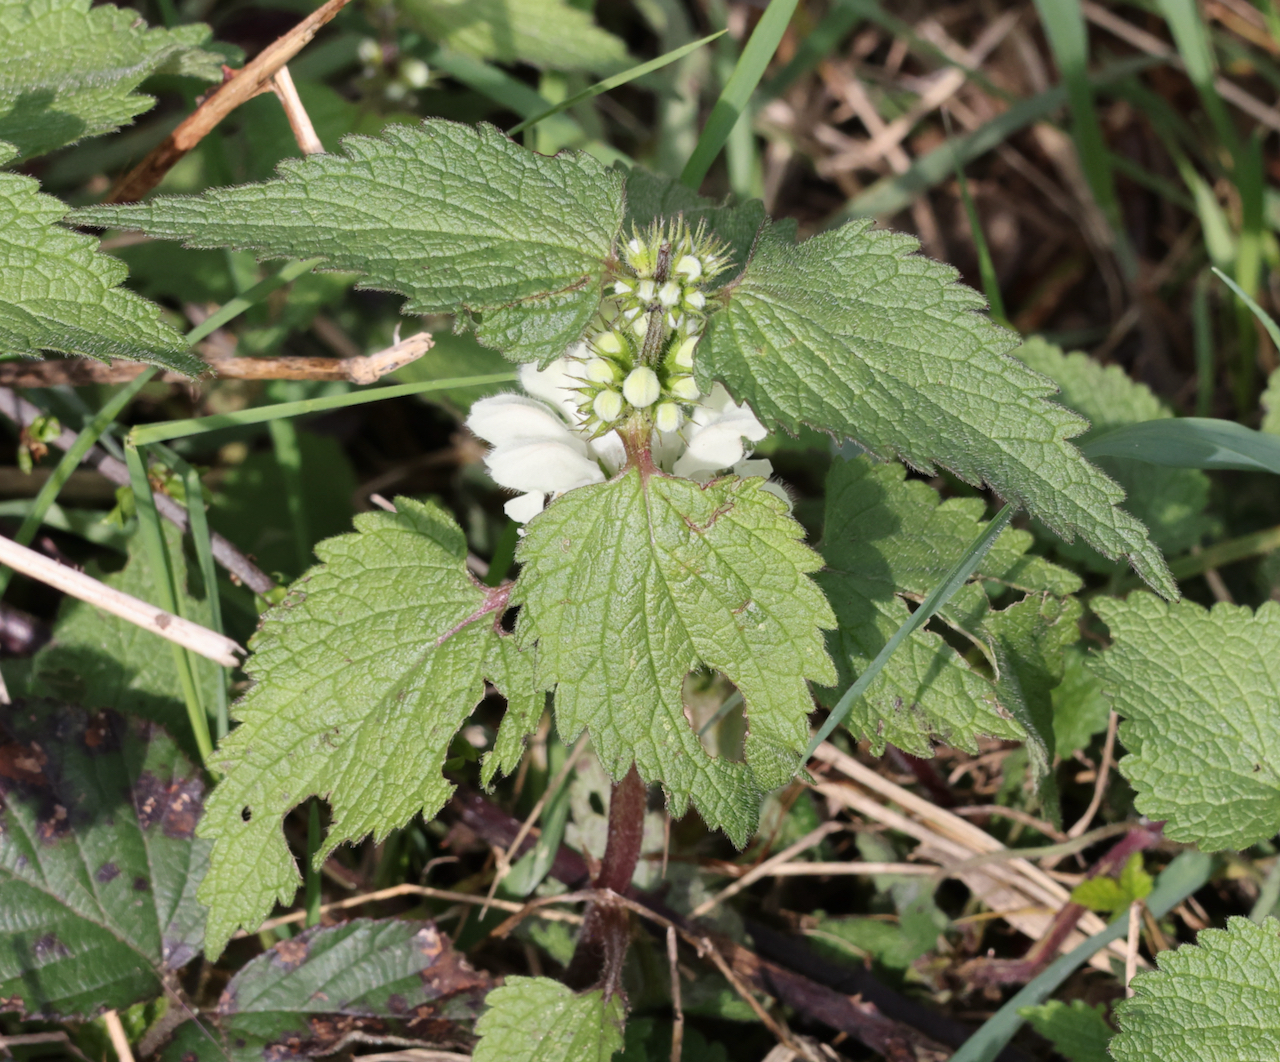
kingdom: Plantae
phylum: Tracheophyta
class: Magnoliopsida
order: Lamiales
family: Lamiaceae
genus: Lamium
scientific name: Lamium album
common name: White dead-nettle
